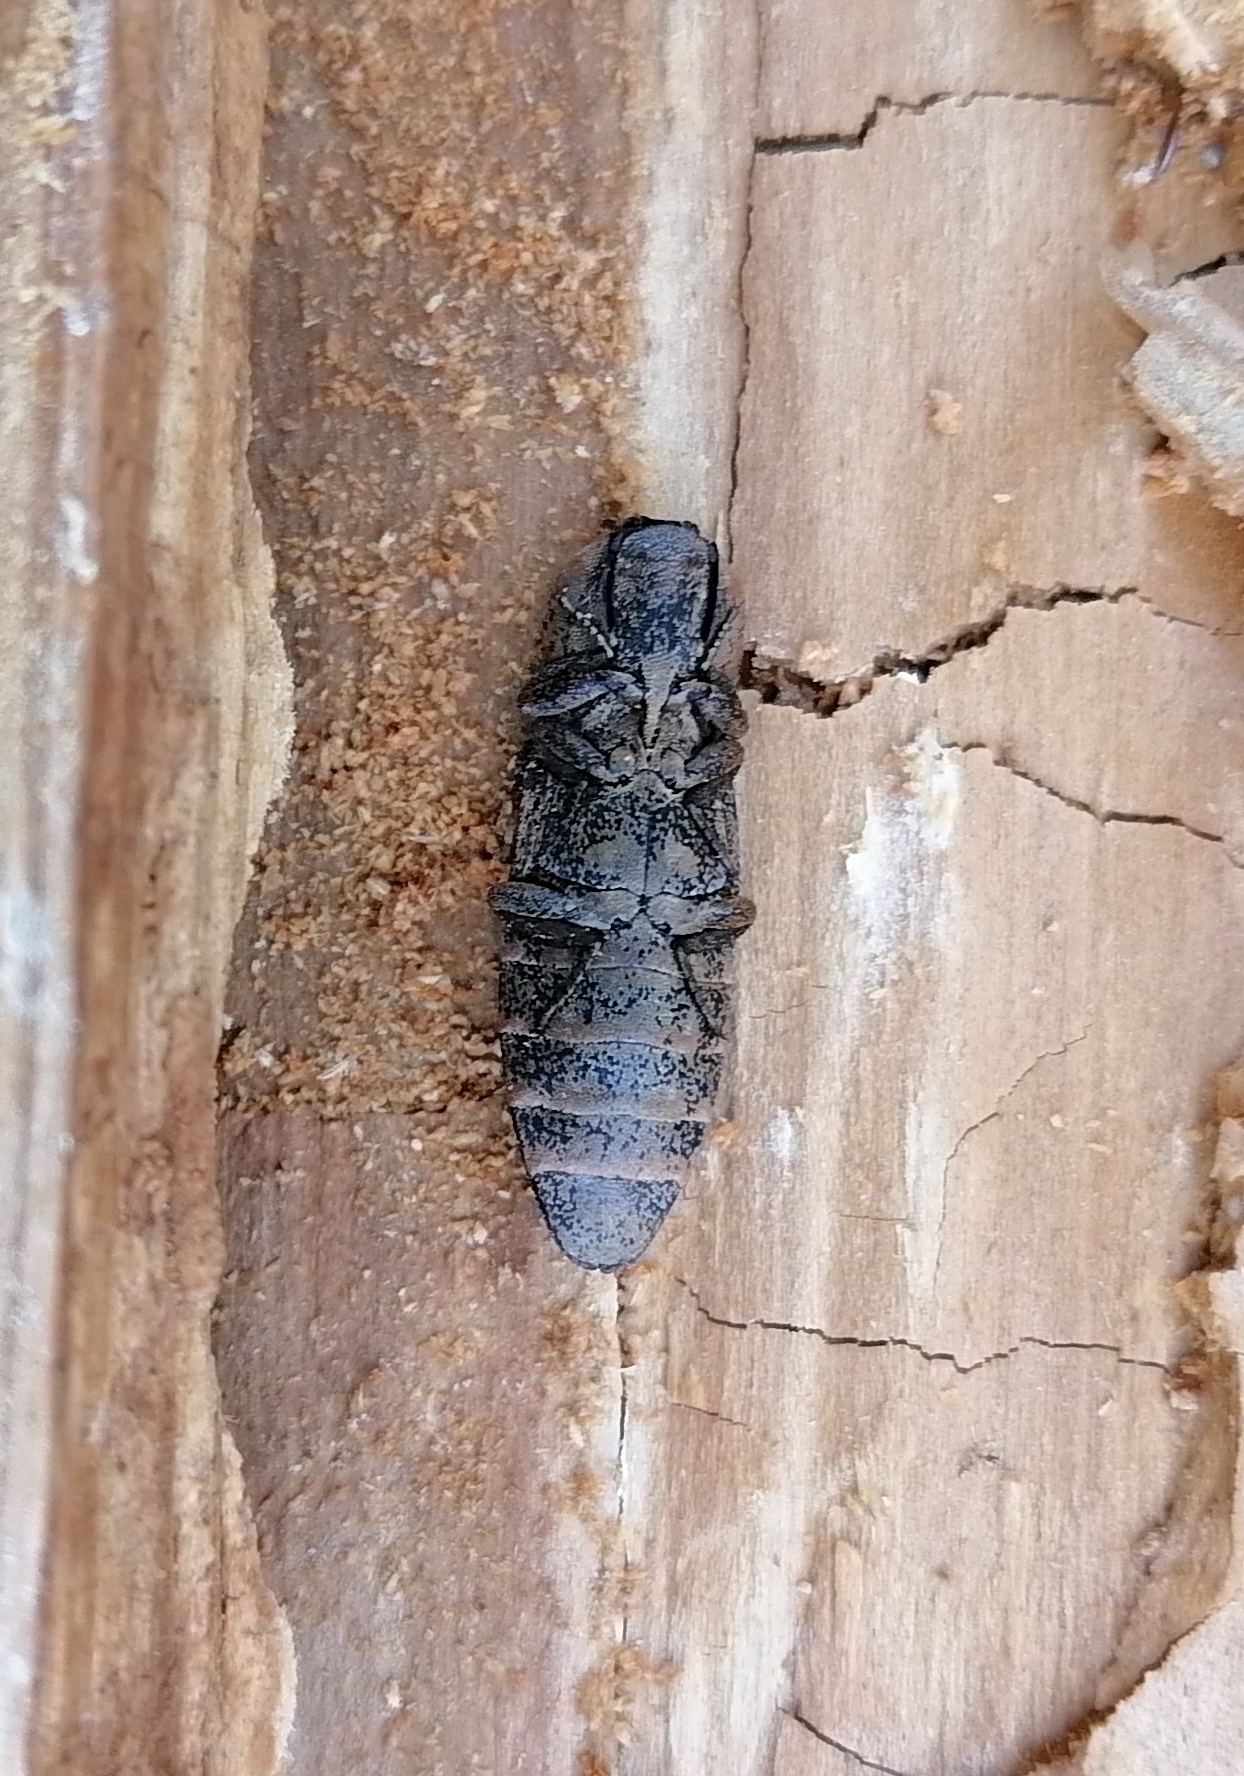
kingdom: Animalia
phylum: Arthropoda
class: Insecta
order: Coleoptera
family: Elateridae
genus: Danosoma
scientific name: Danosoma conspersum
